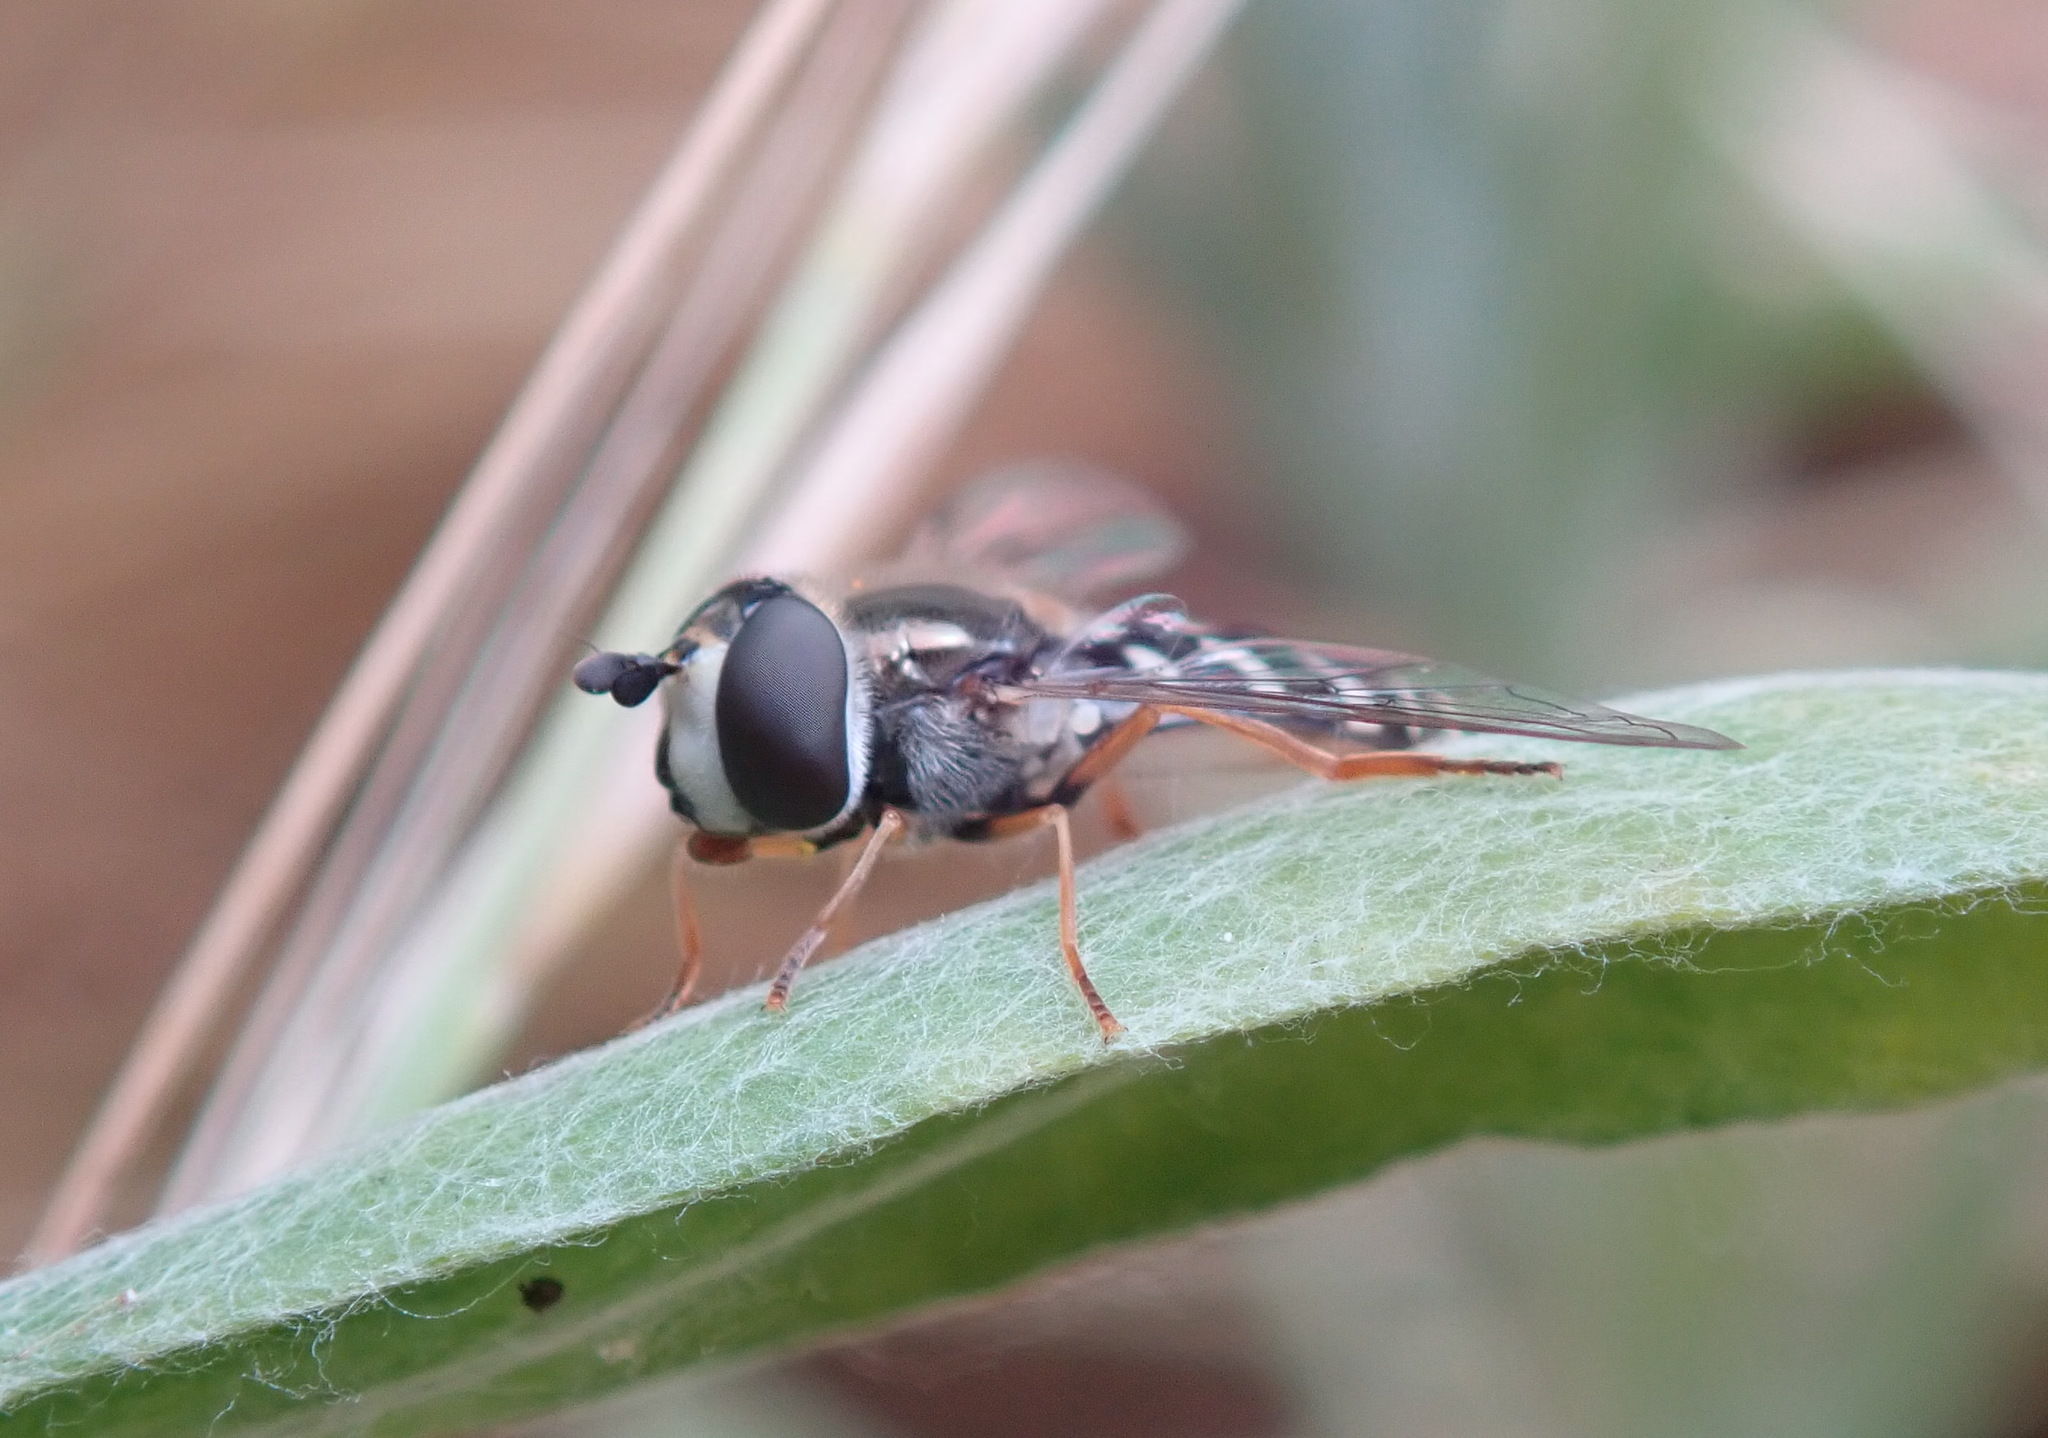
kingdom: Animalia
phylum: Arthropoda
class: Insecta
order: Diptera
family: Syrphidae
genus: Eupeodes
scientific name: Eupeodes volucris
